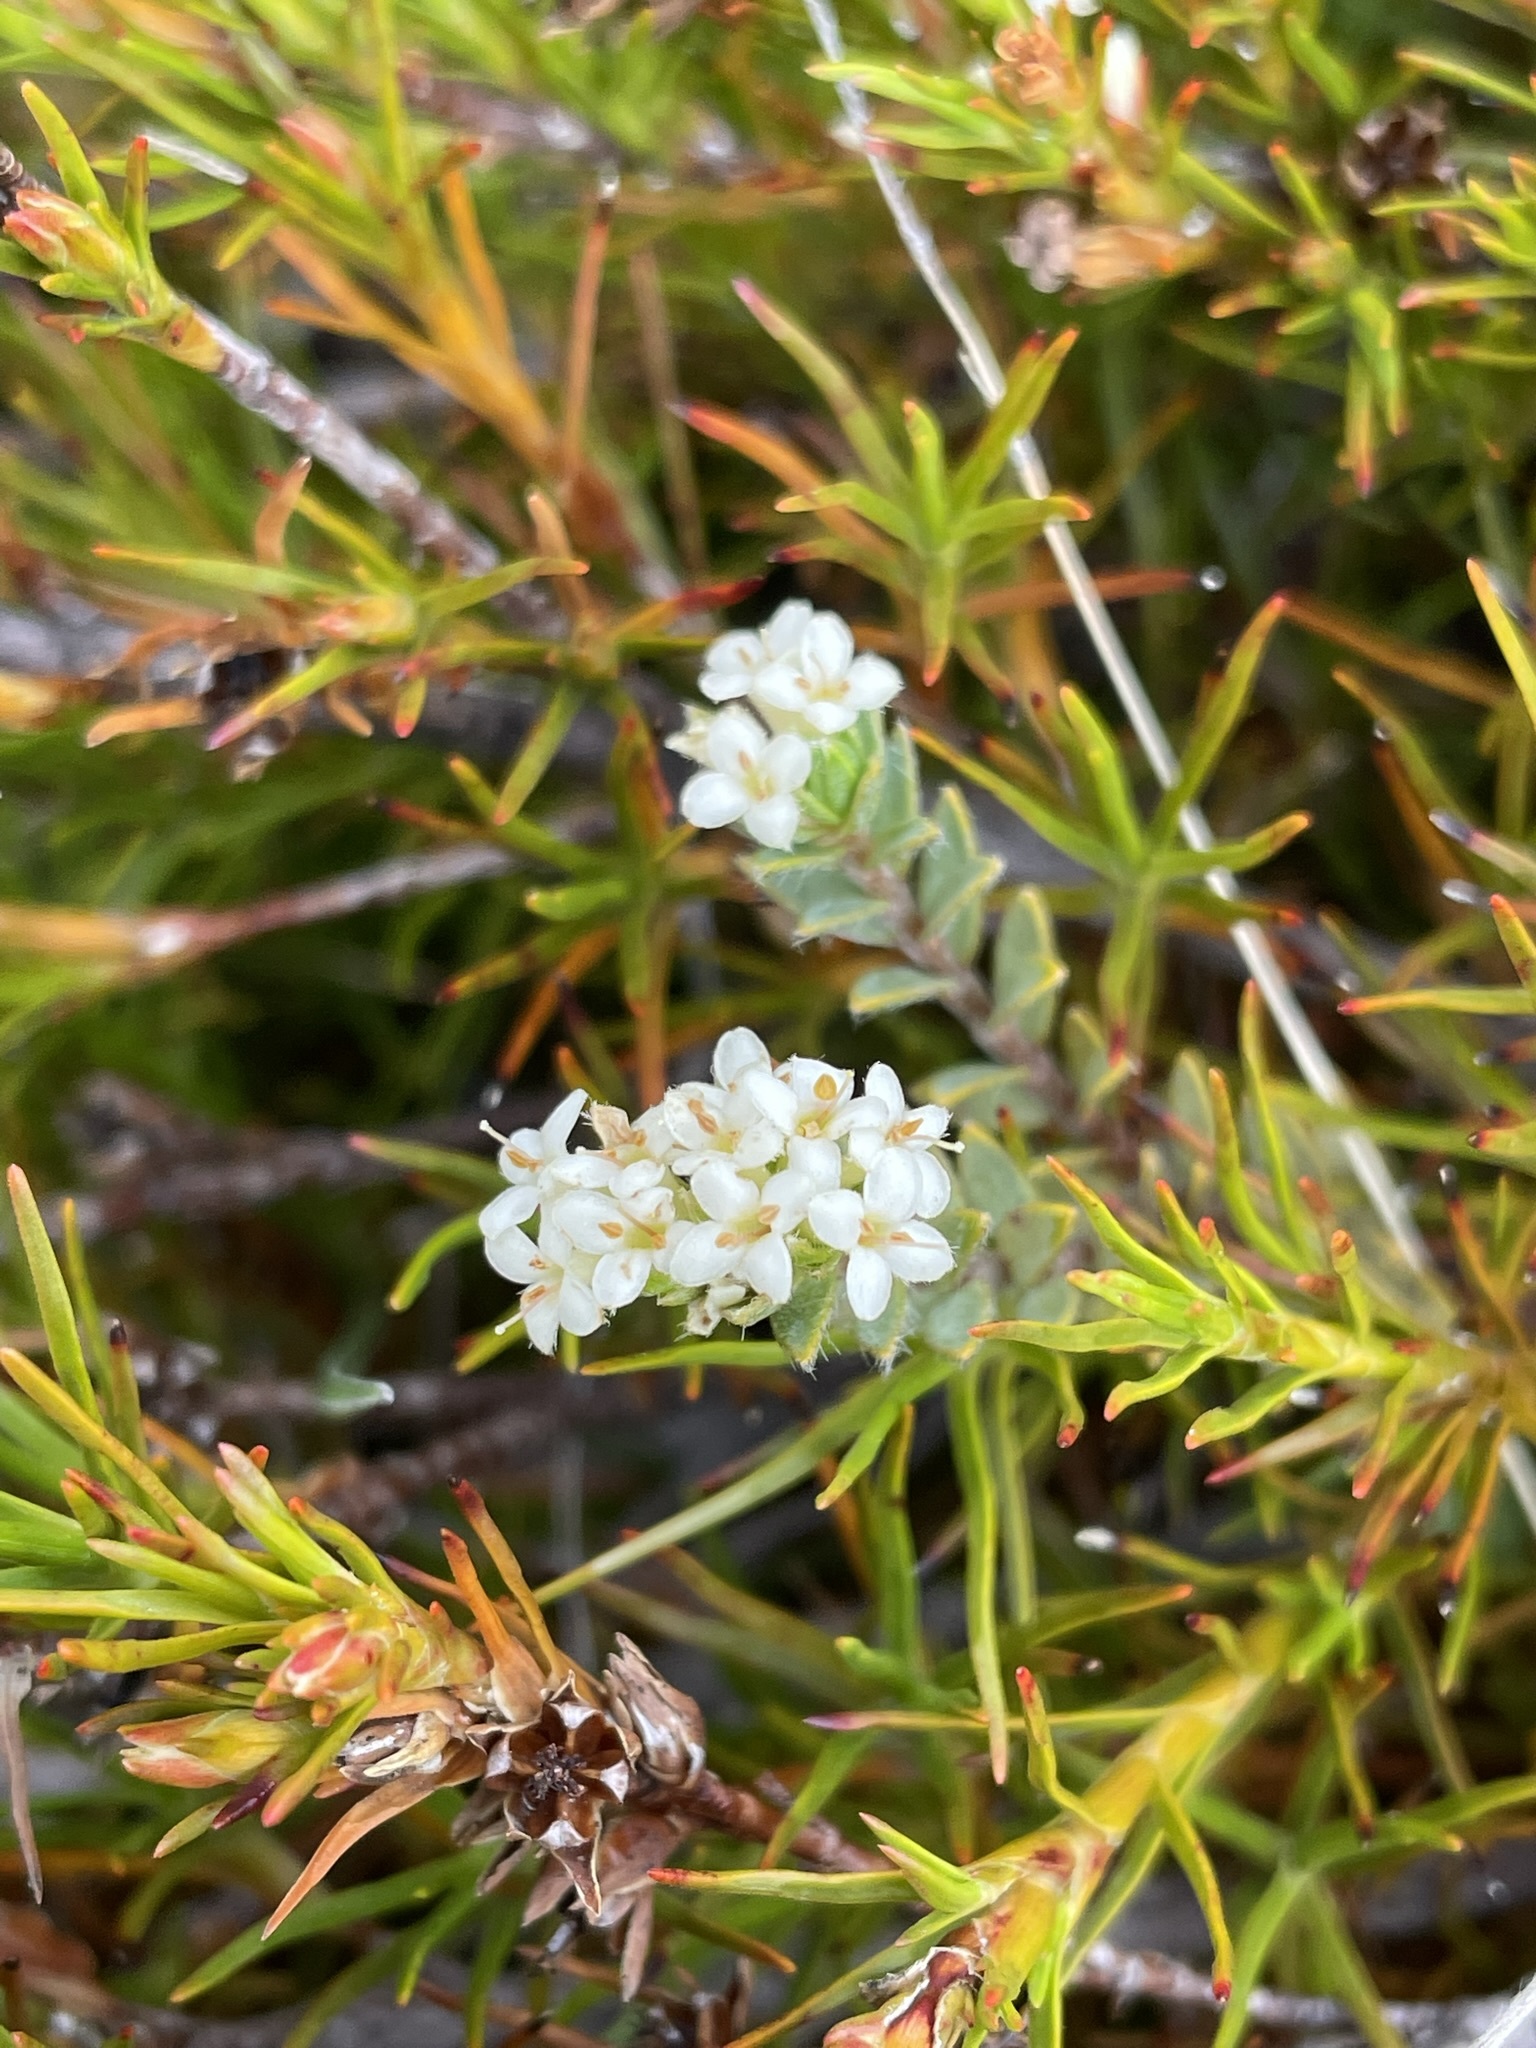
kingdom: Plantae
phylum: Tracheophyta
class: Magnoliopsida
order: Malvales
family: Thymelaeaceae
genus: Pimelea
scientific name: Pimelea oreophila
